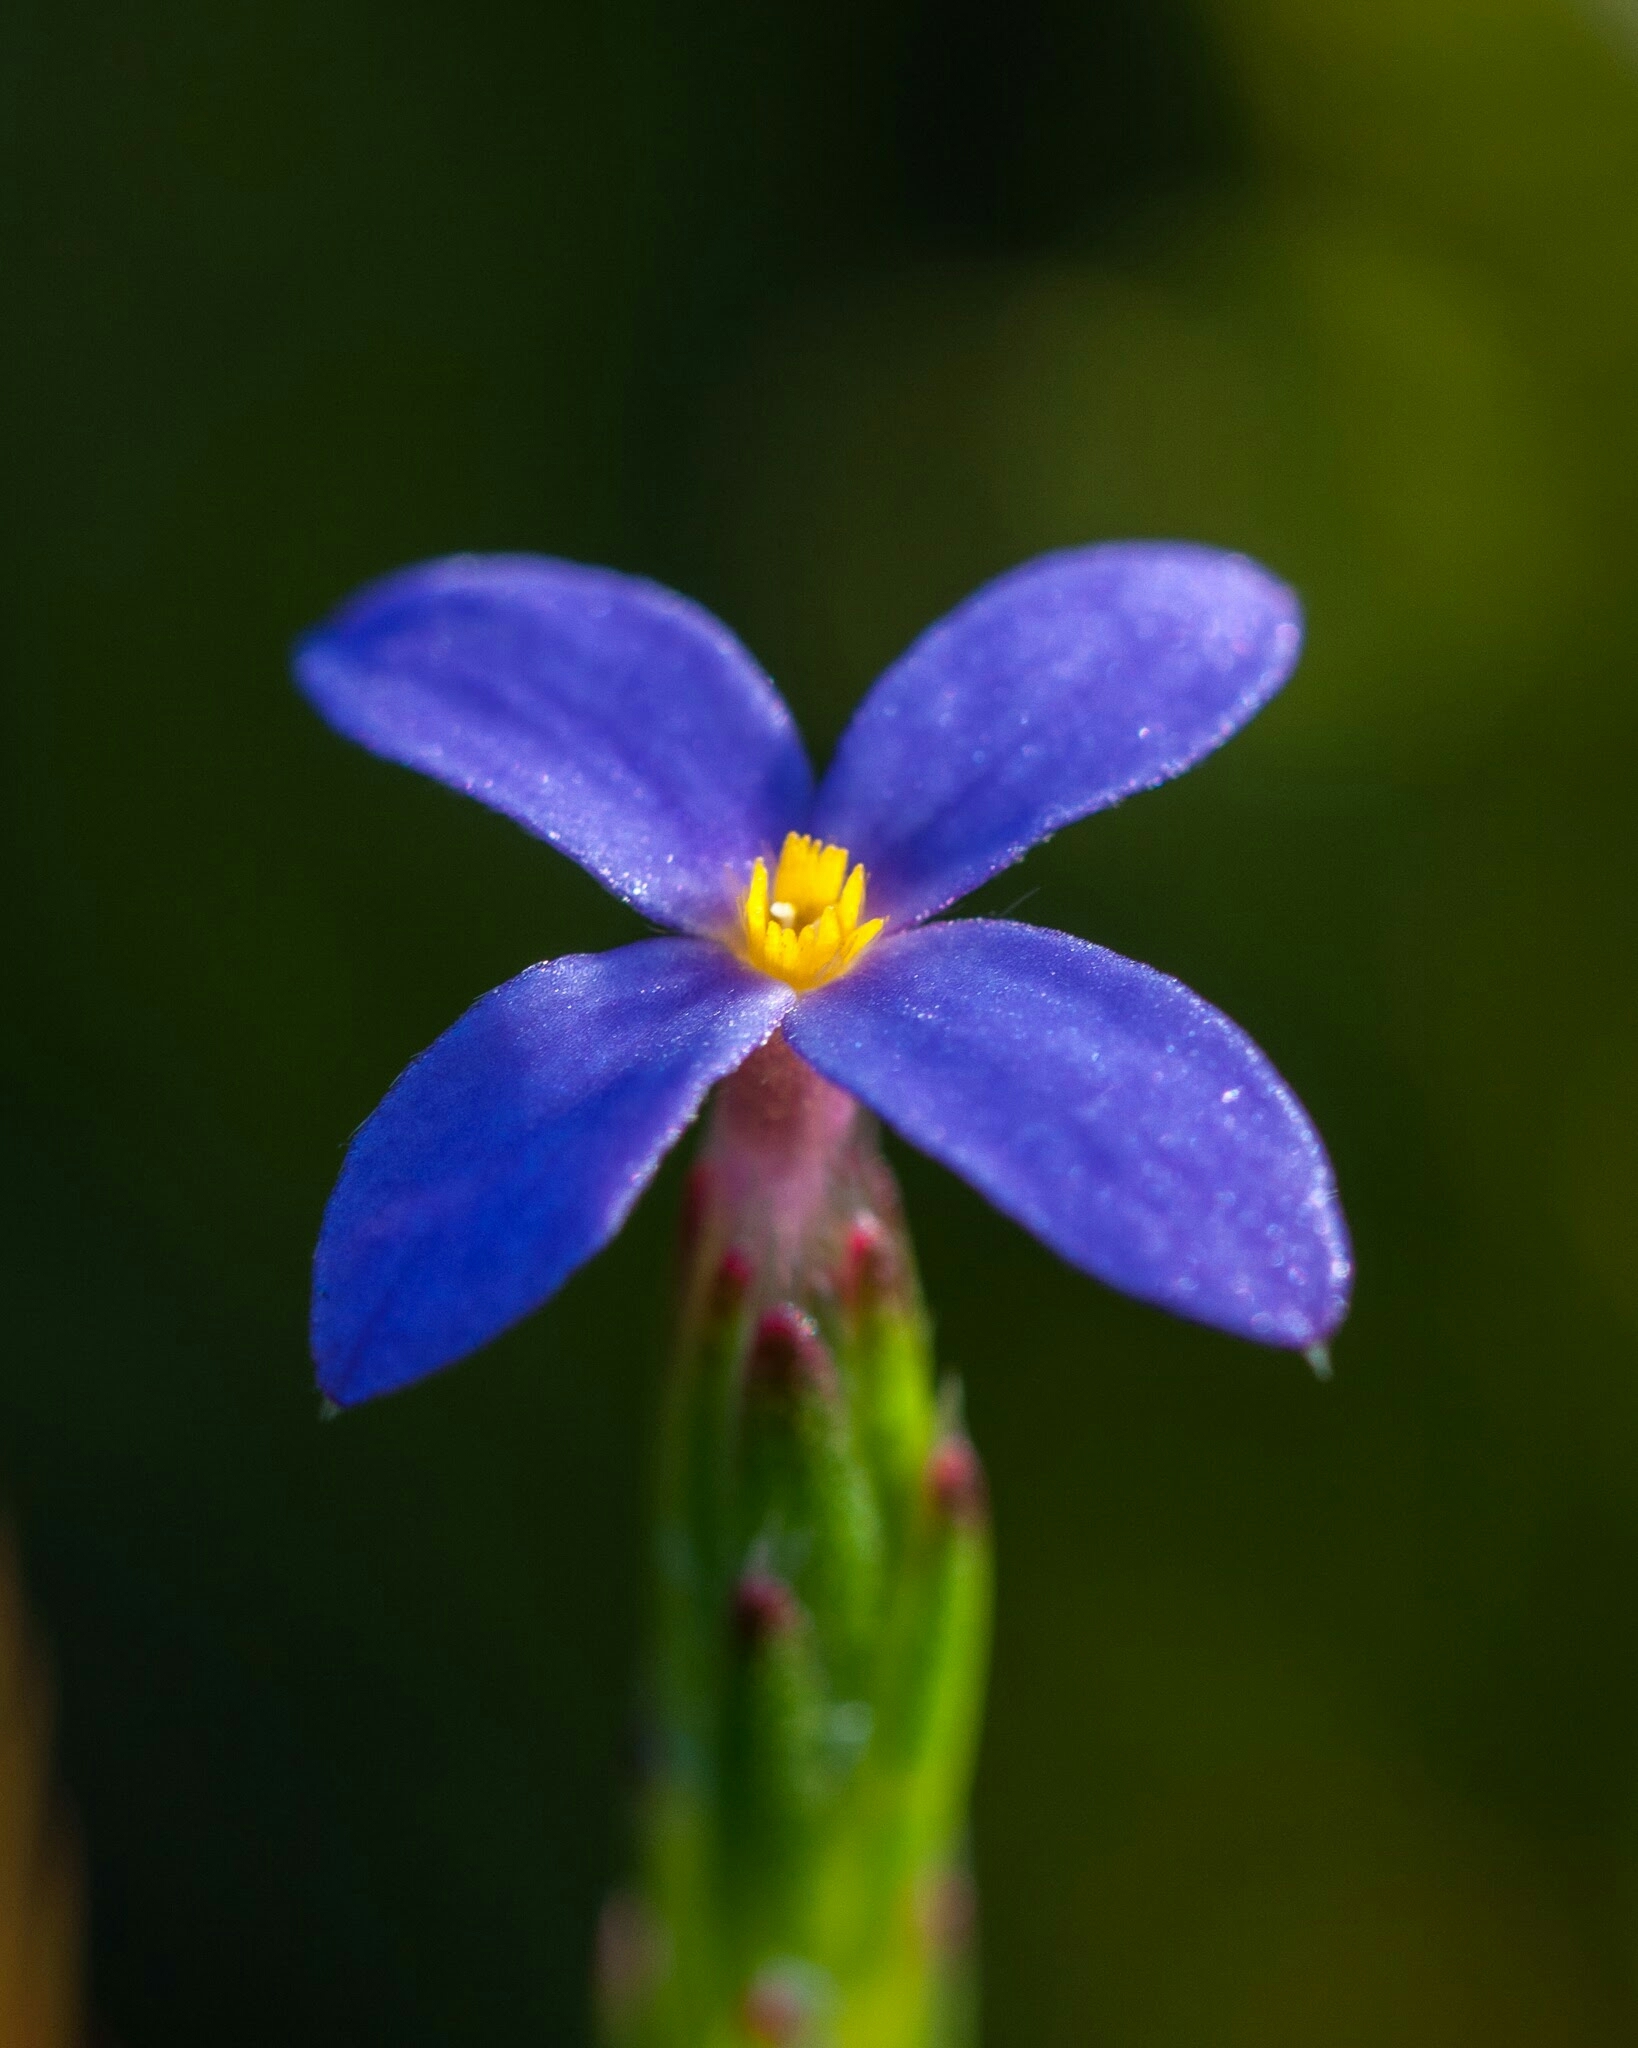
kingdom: Plantae
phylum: Tracheophyta
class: Magnoliopsida
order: Malvales
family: Thymelaeaceae
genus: Gnidia
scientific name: Gnidia penicillata
